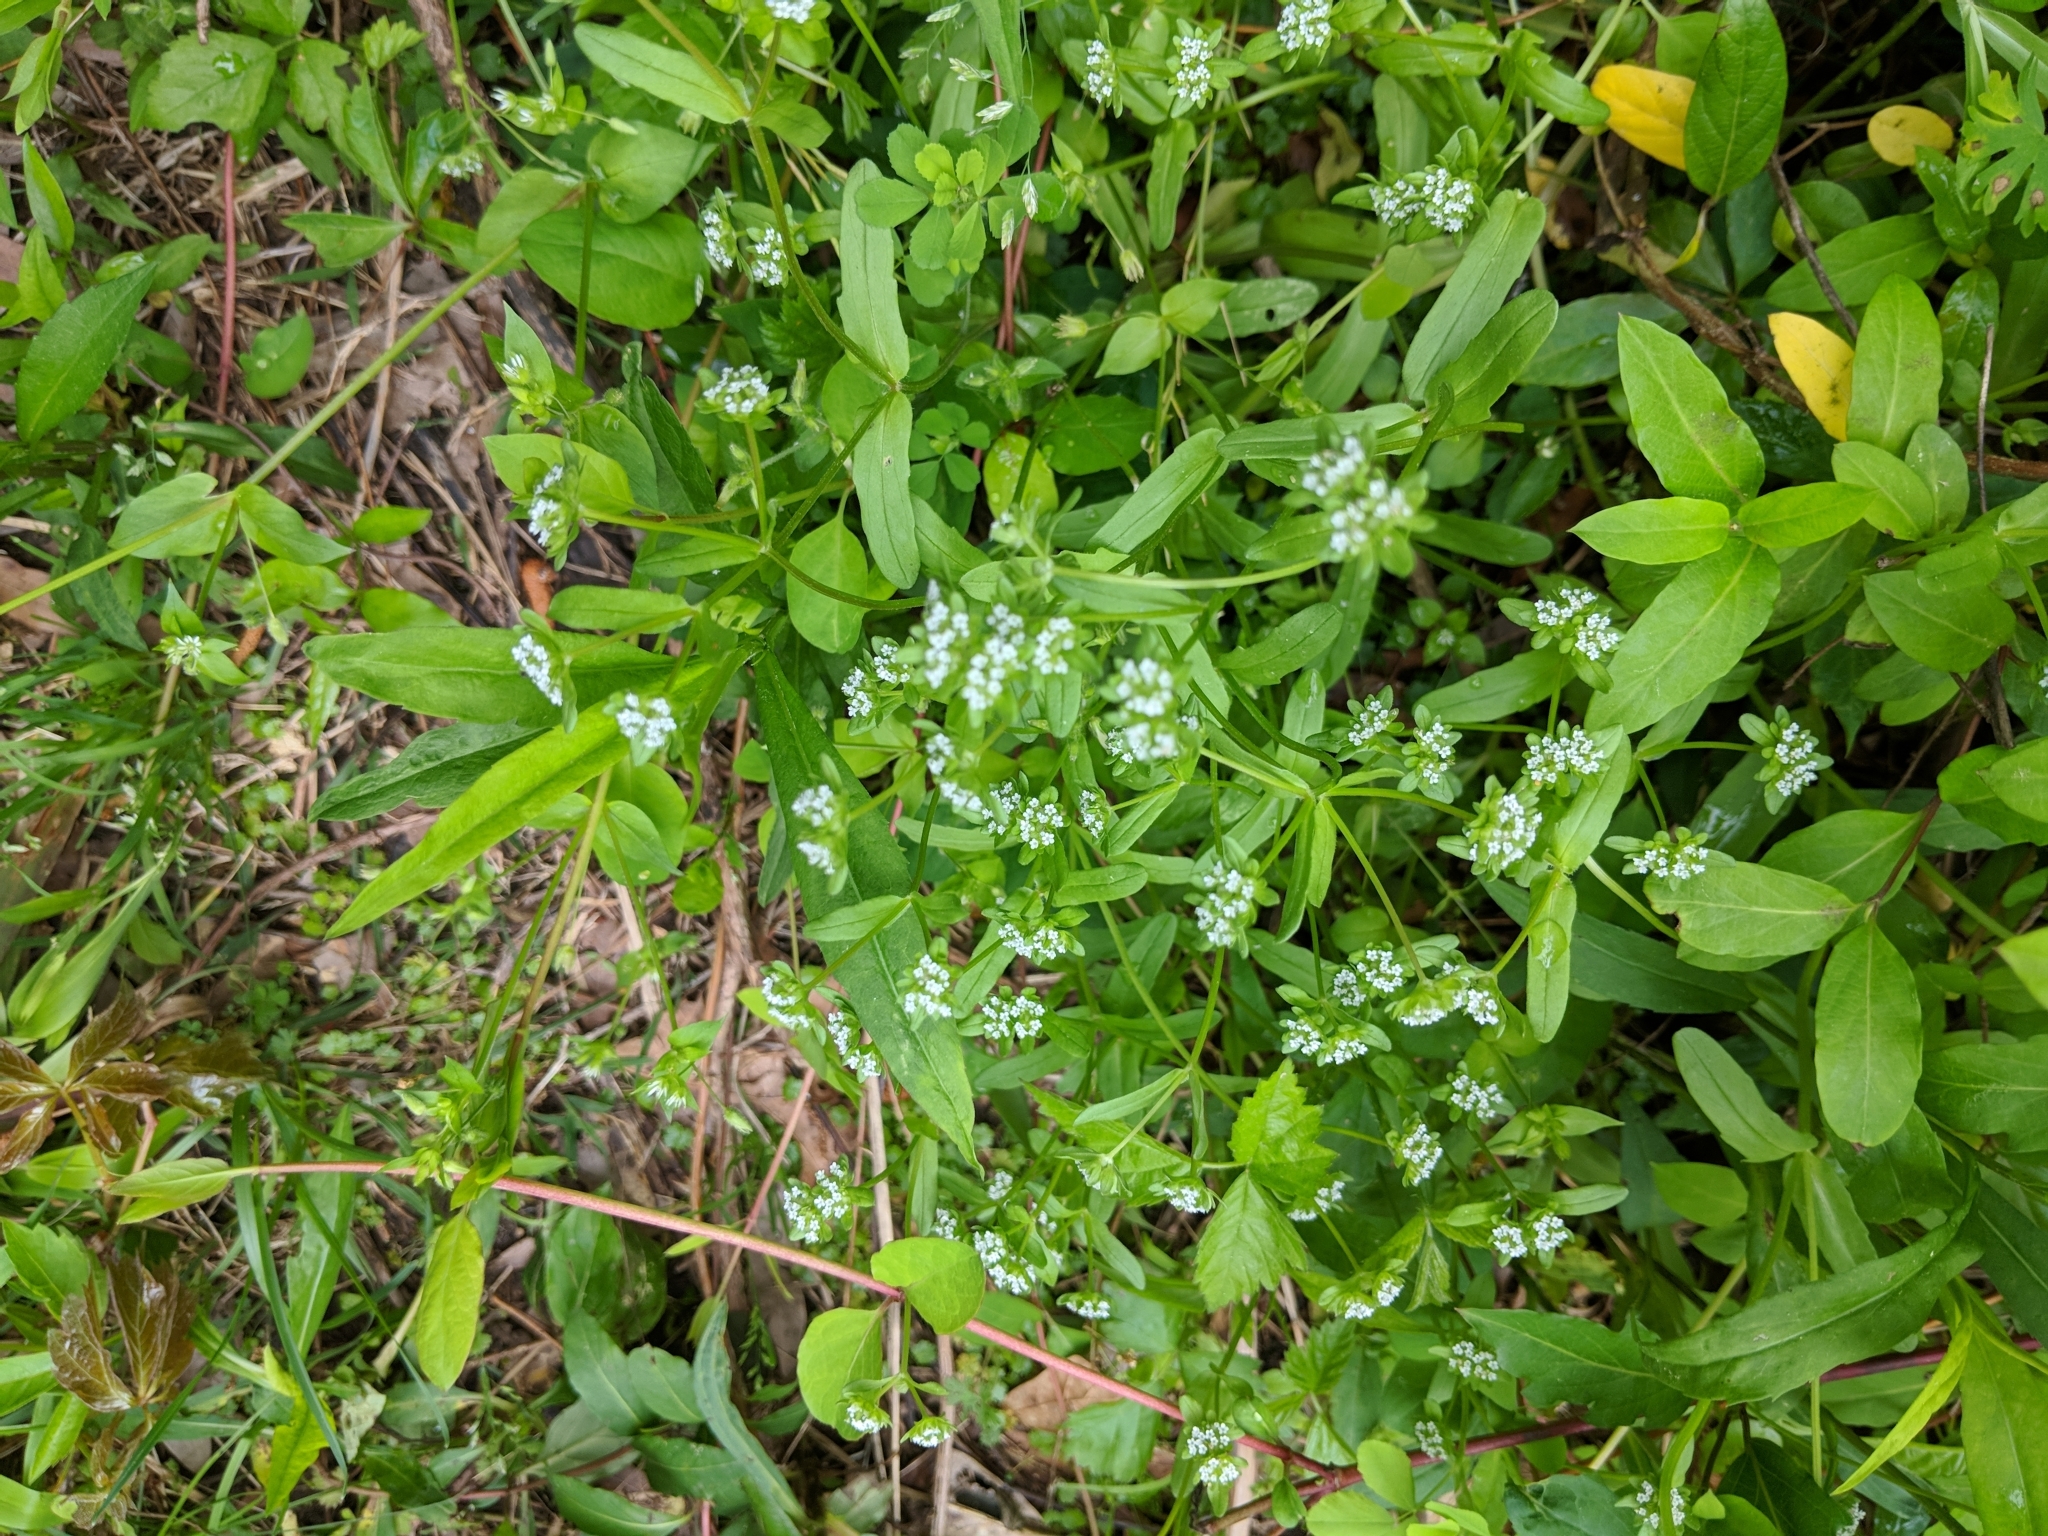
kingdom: Plantae
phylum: Tracheophyta
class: Magnoliopsida
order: Dipsacales
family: Caprifoliaceae
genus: Valerianella
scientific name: Valerianella locusta
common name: Common cornsalad
